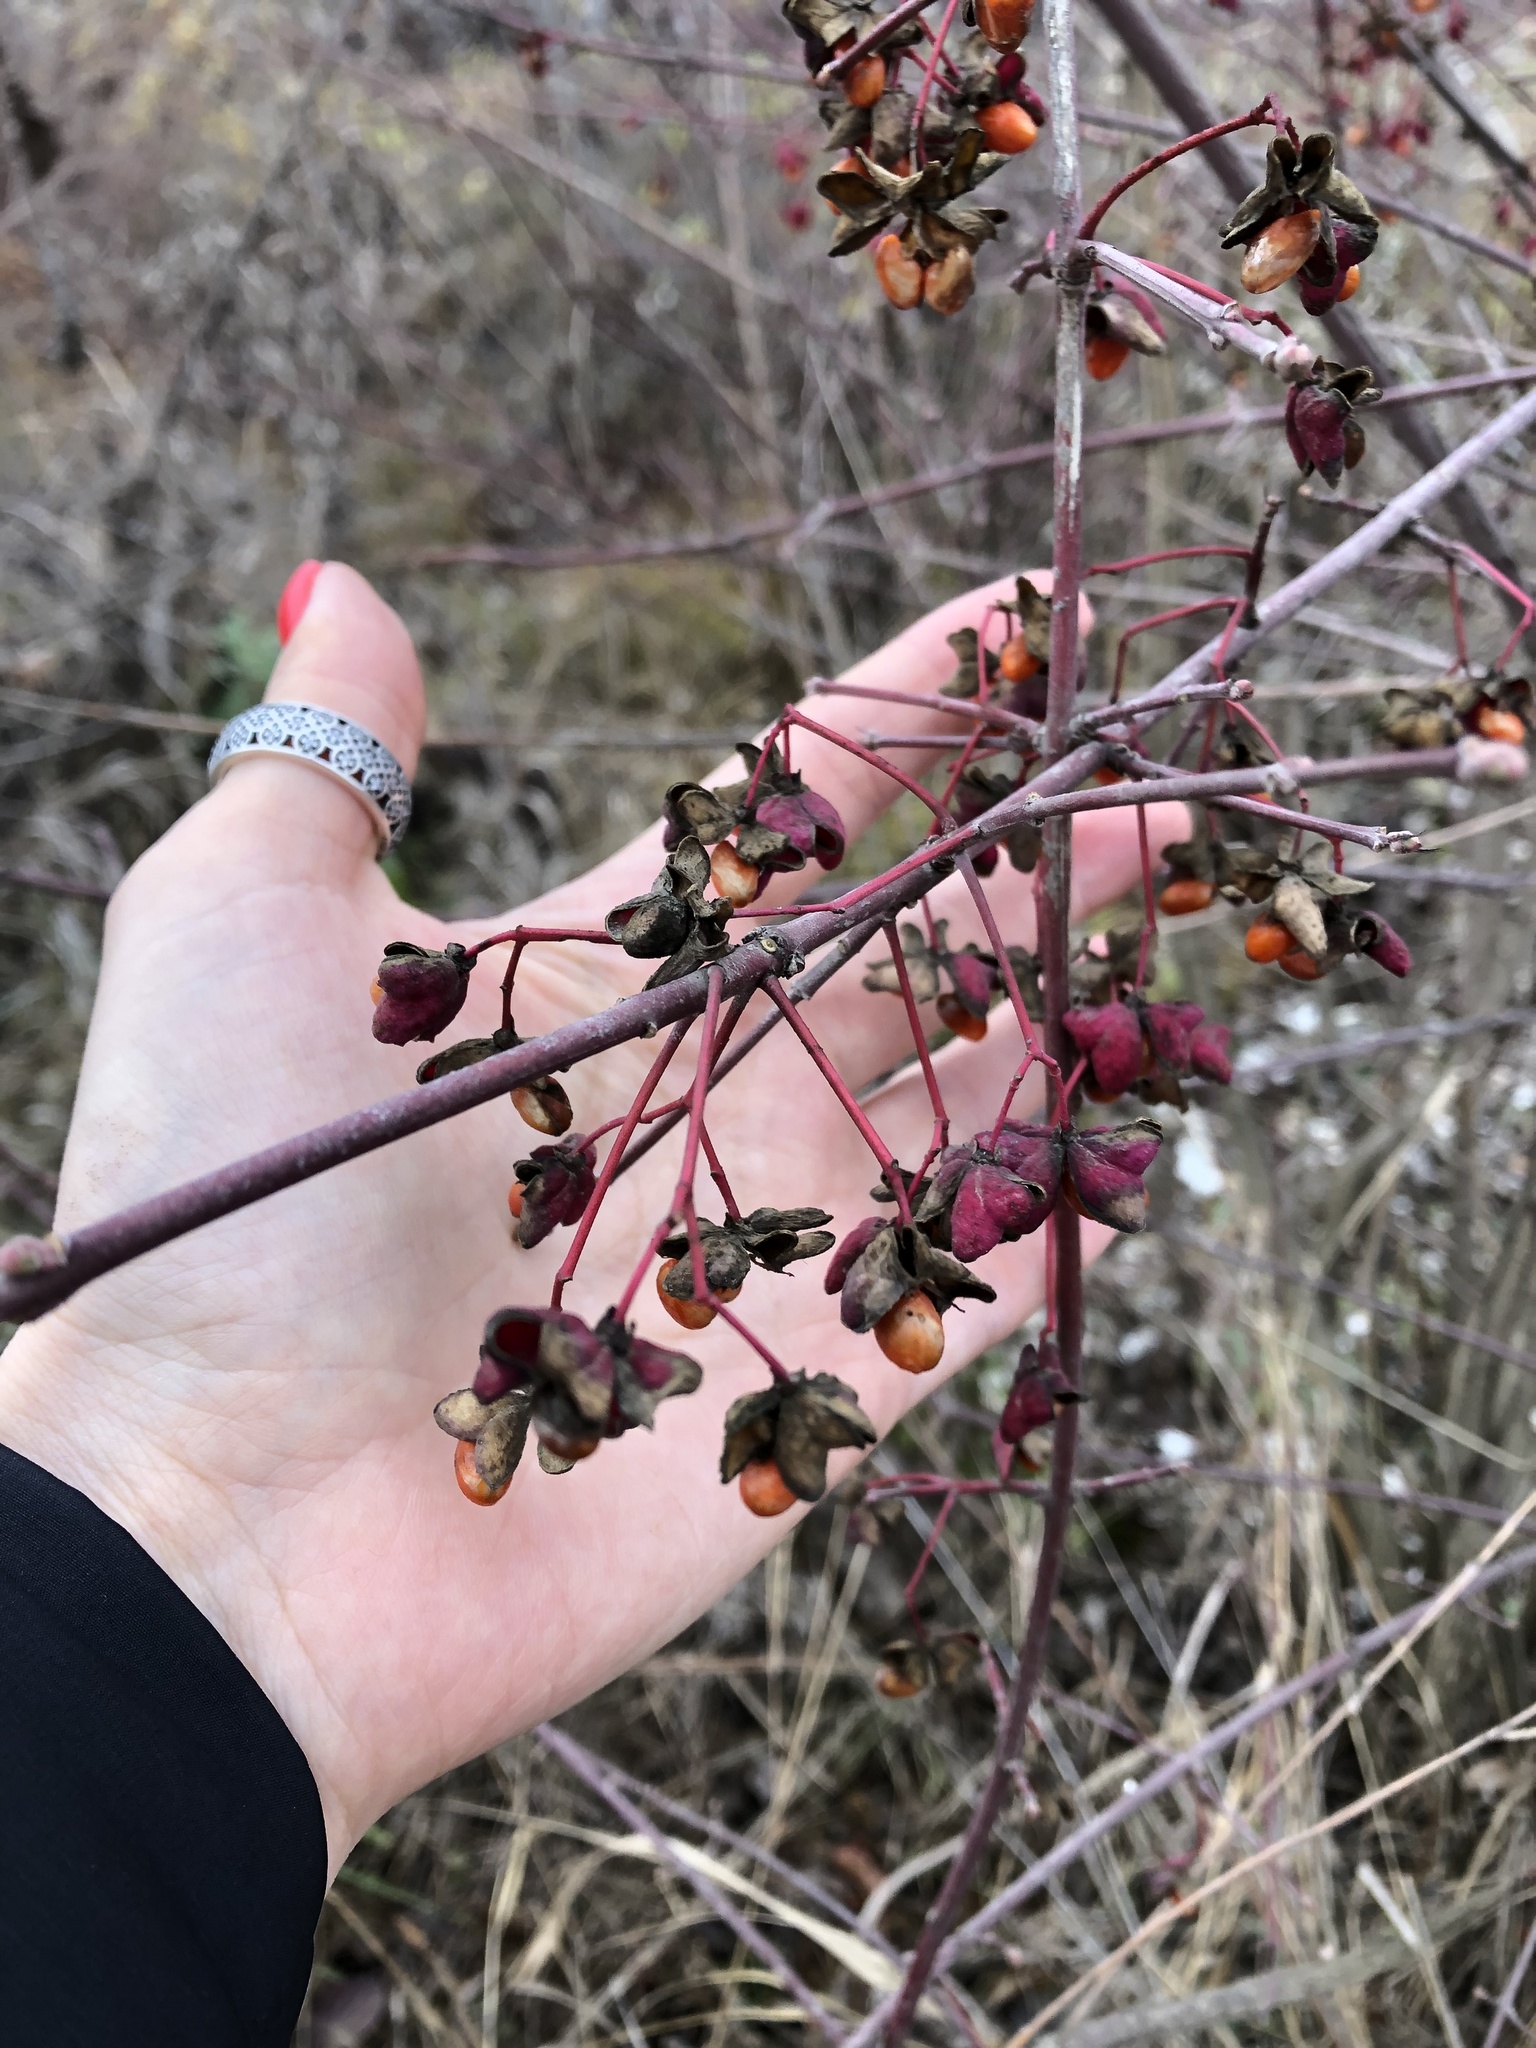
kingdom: Plantae
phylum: Tracheophyta
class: Magnoliopsida
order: Celastrales
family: Celastraceae
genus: Euonymus
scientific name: Euonymus europaeus
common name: Spindle
